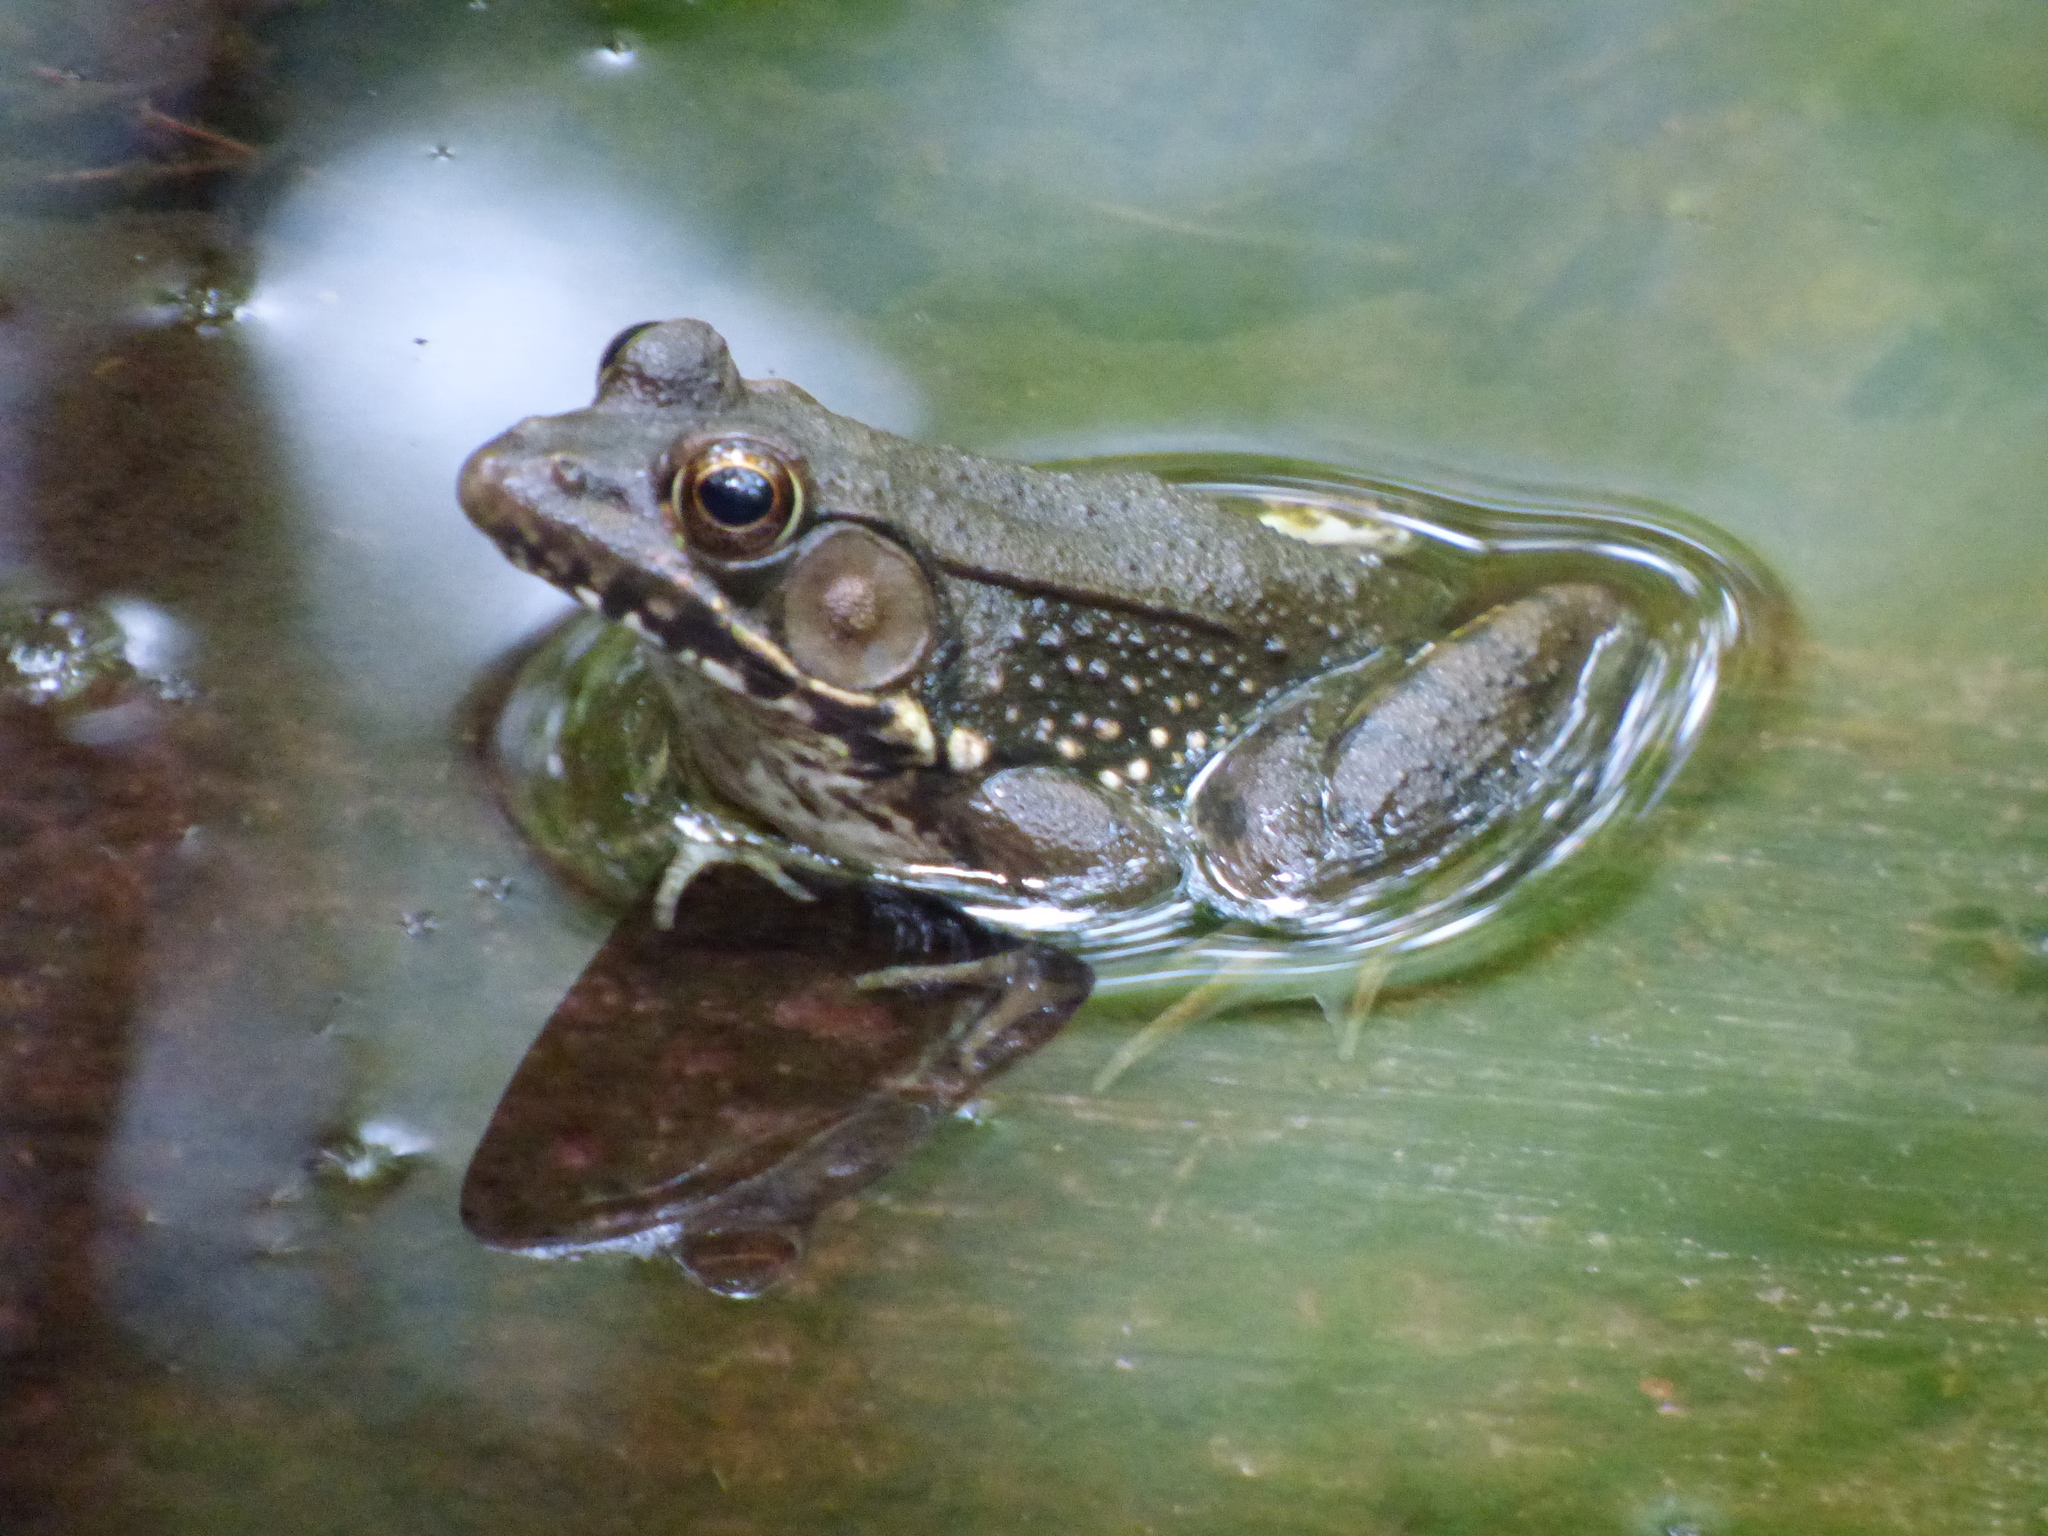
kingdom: Animalia
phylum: Chordata
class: Amphibia
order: Anura
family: Ranidae
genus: Lithobates
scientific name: Lithobates clamitans
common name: Green frog
